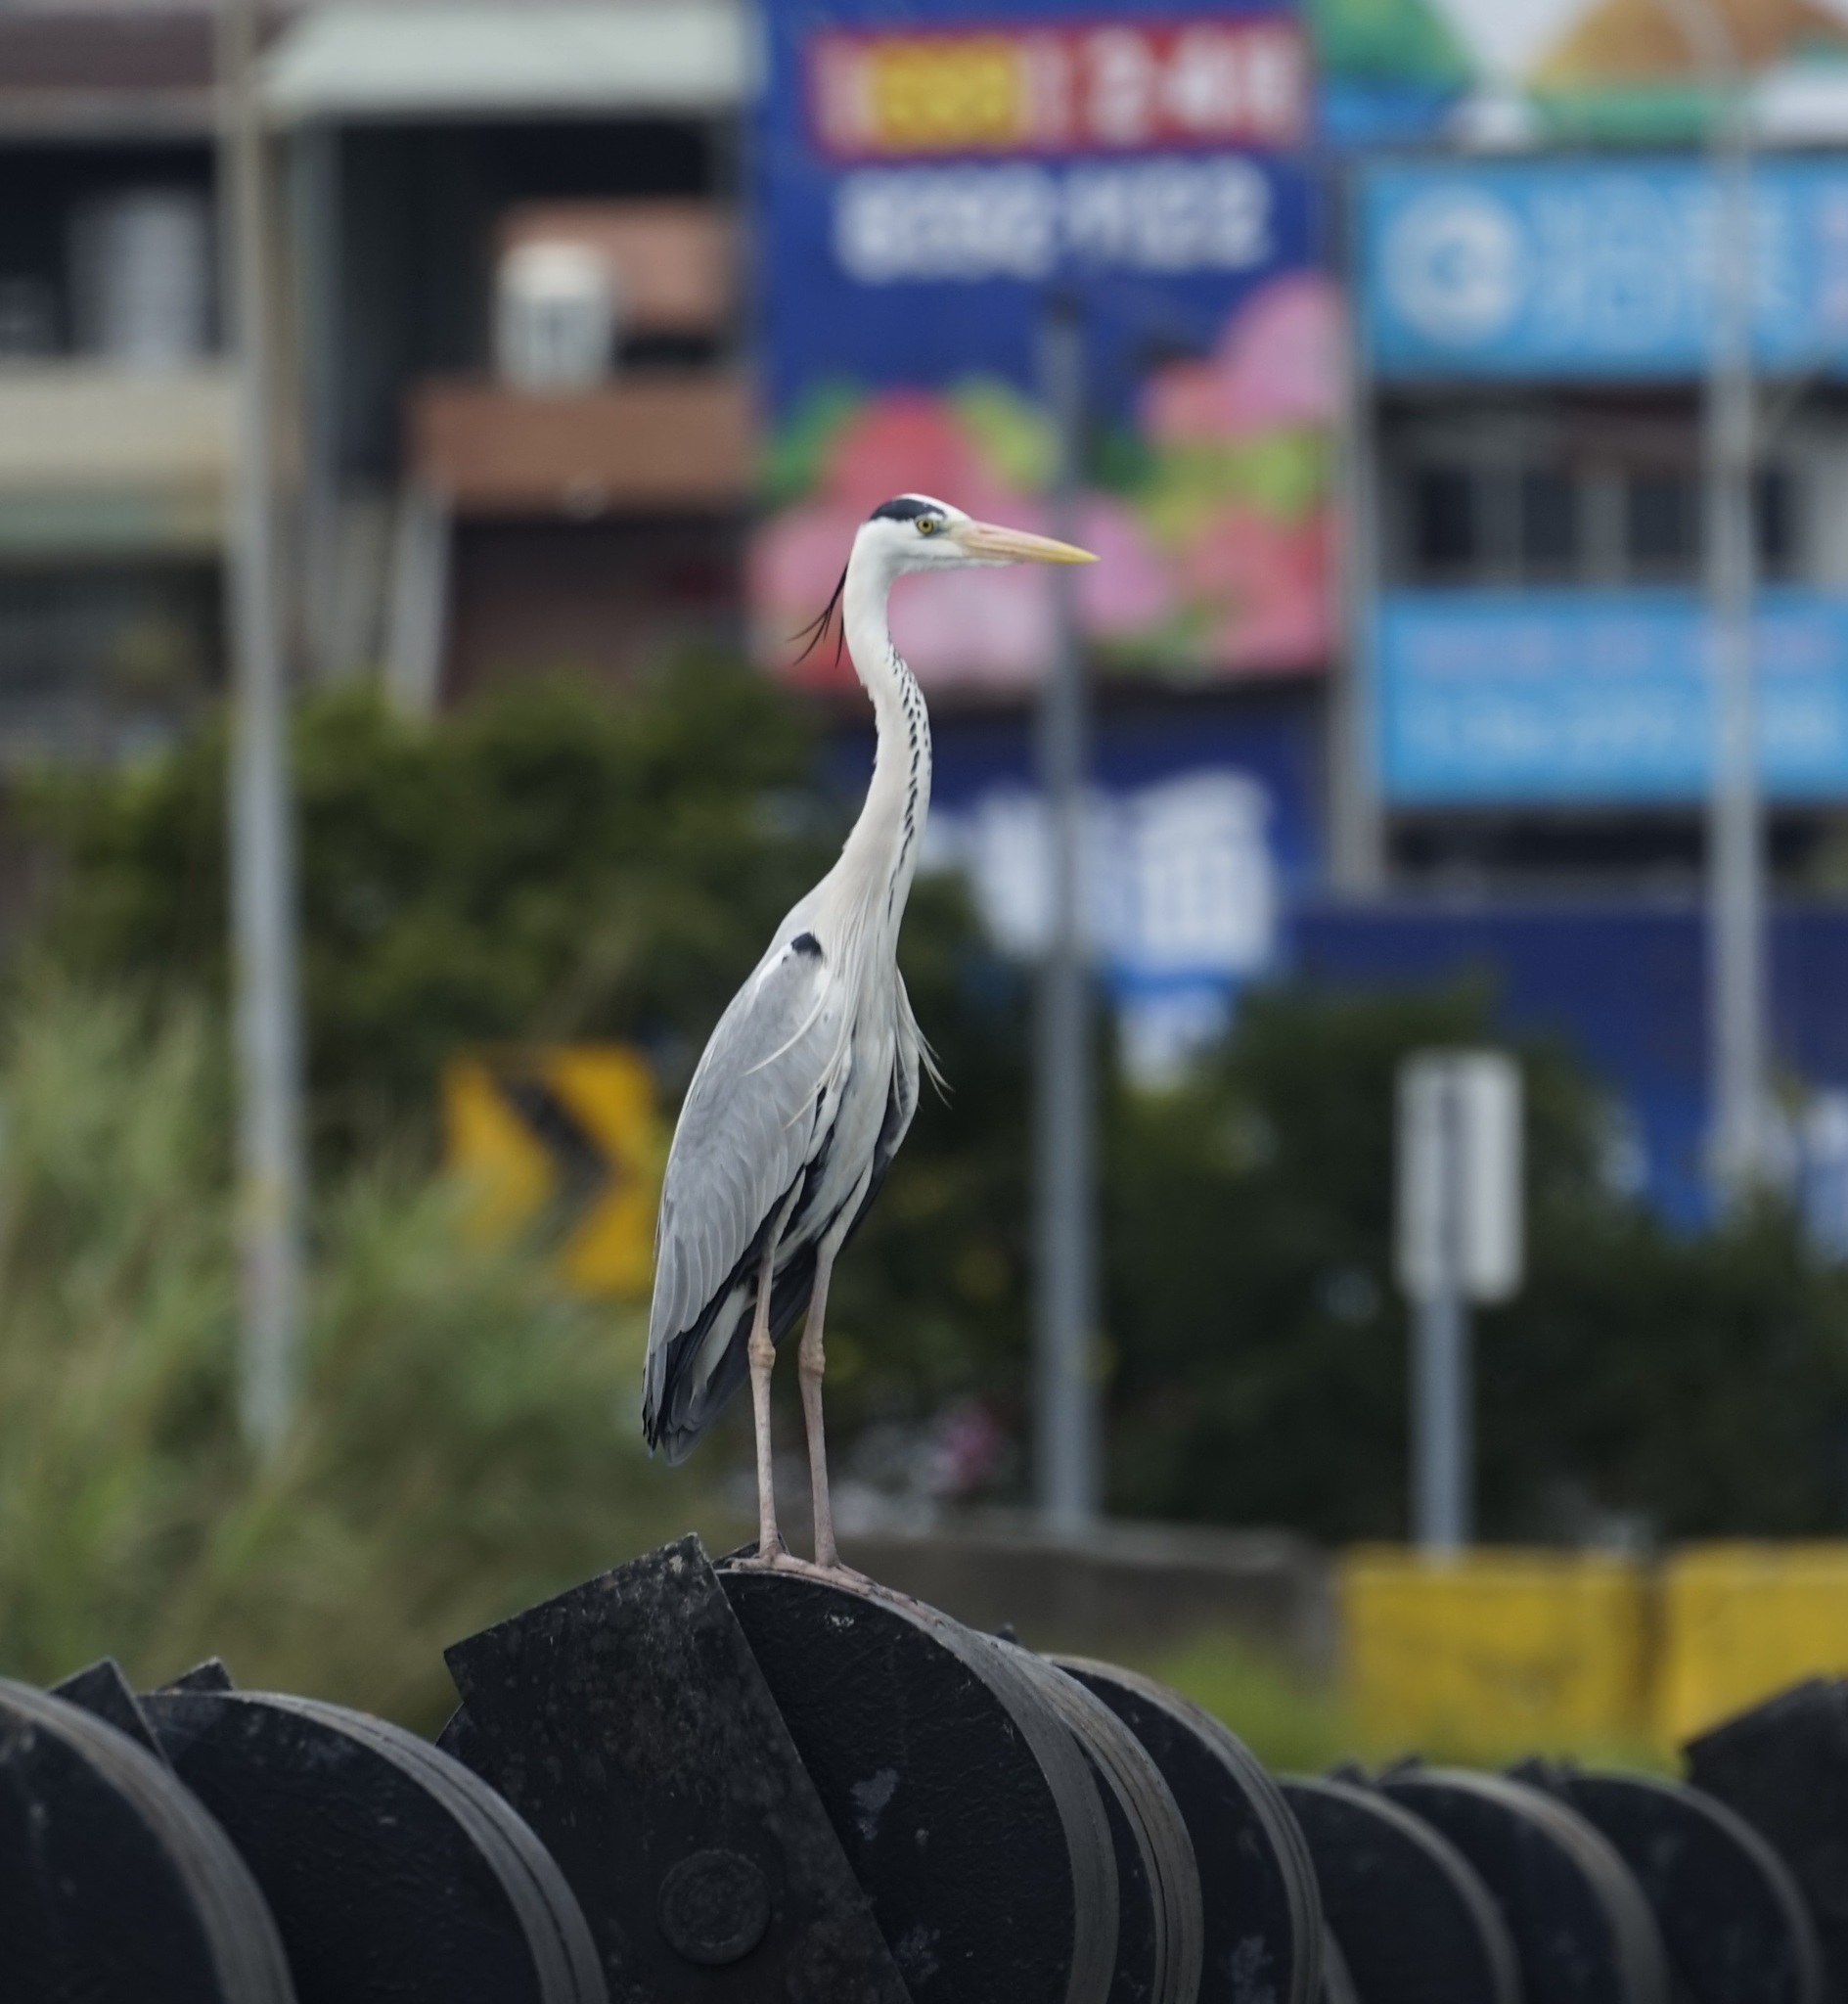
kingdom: Animalia
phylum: Chordata
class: Aves
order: Pelecaniformes
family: Ardeidae
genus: Ardea
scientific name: Ardea cinerea
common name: Grey heron
